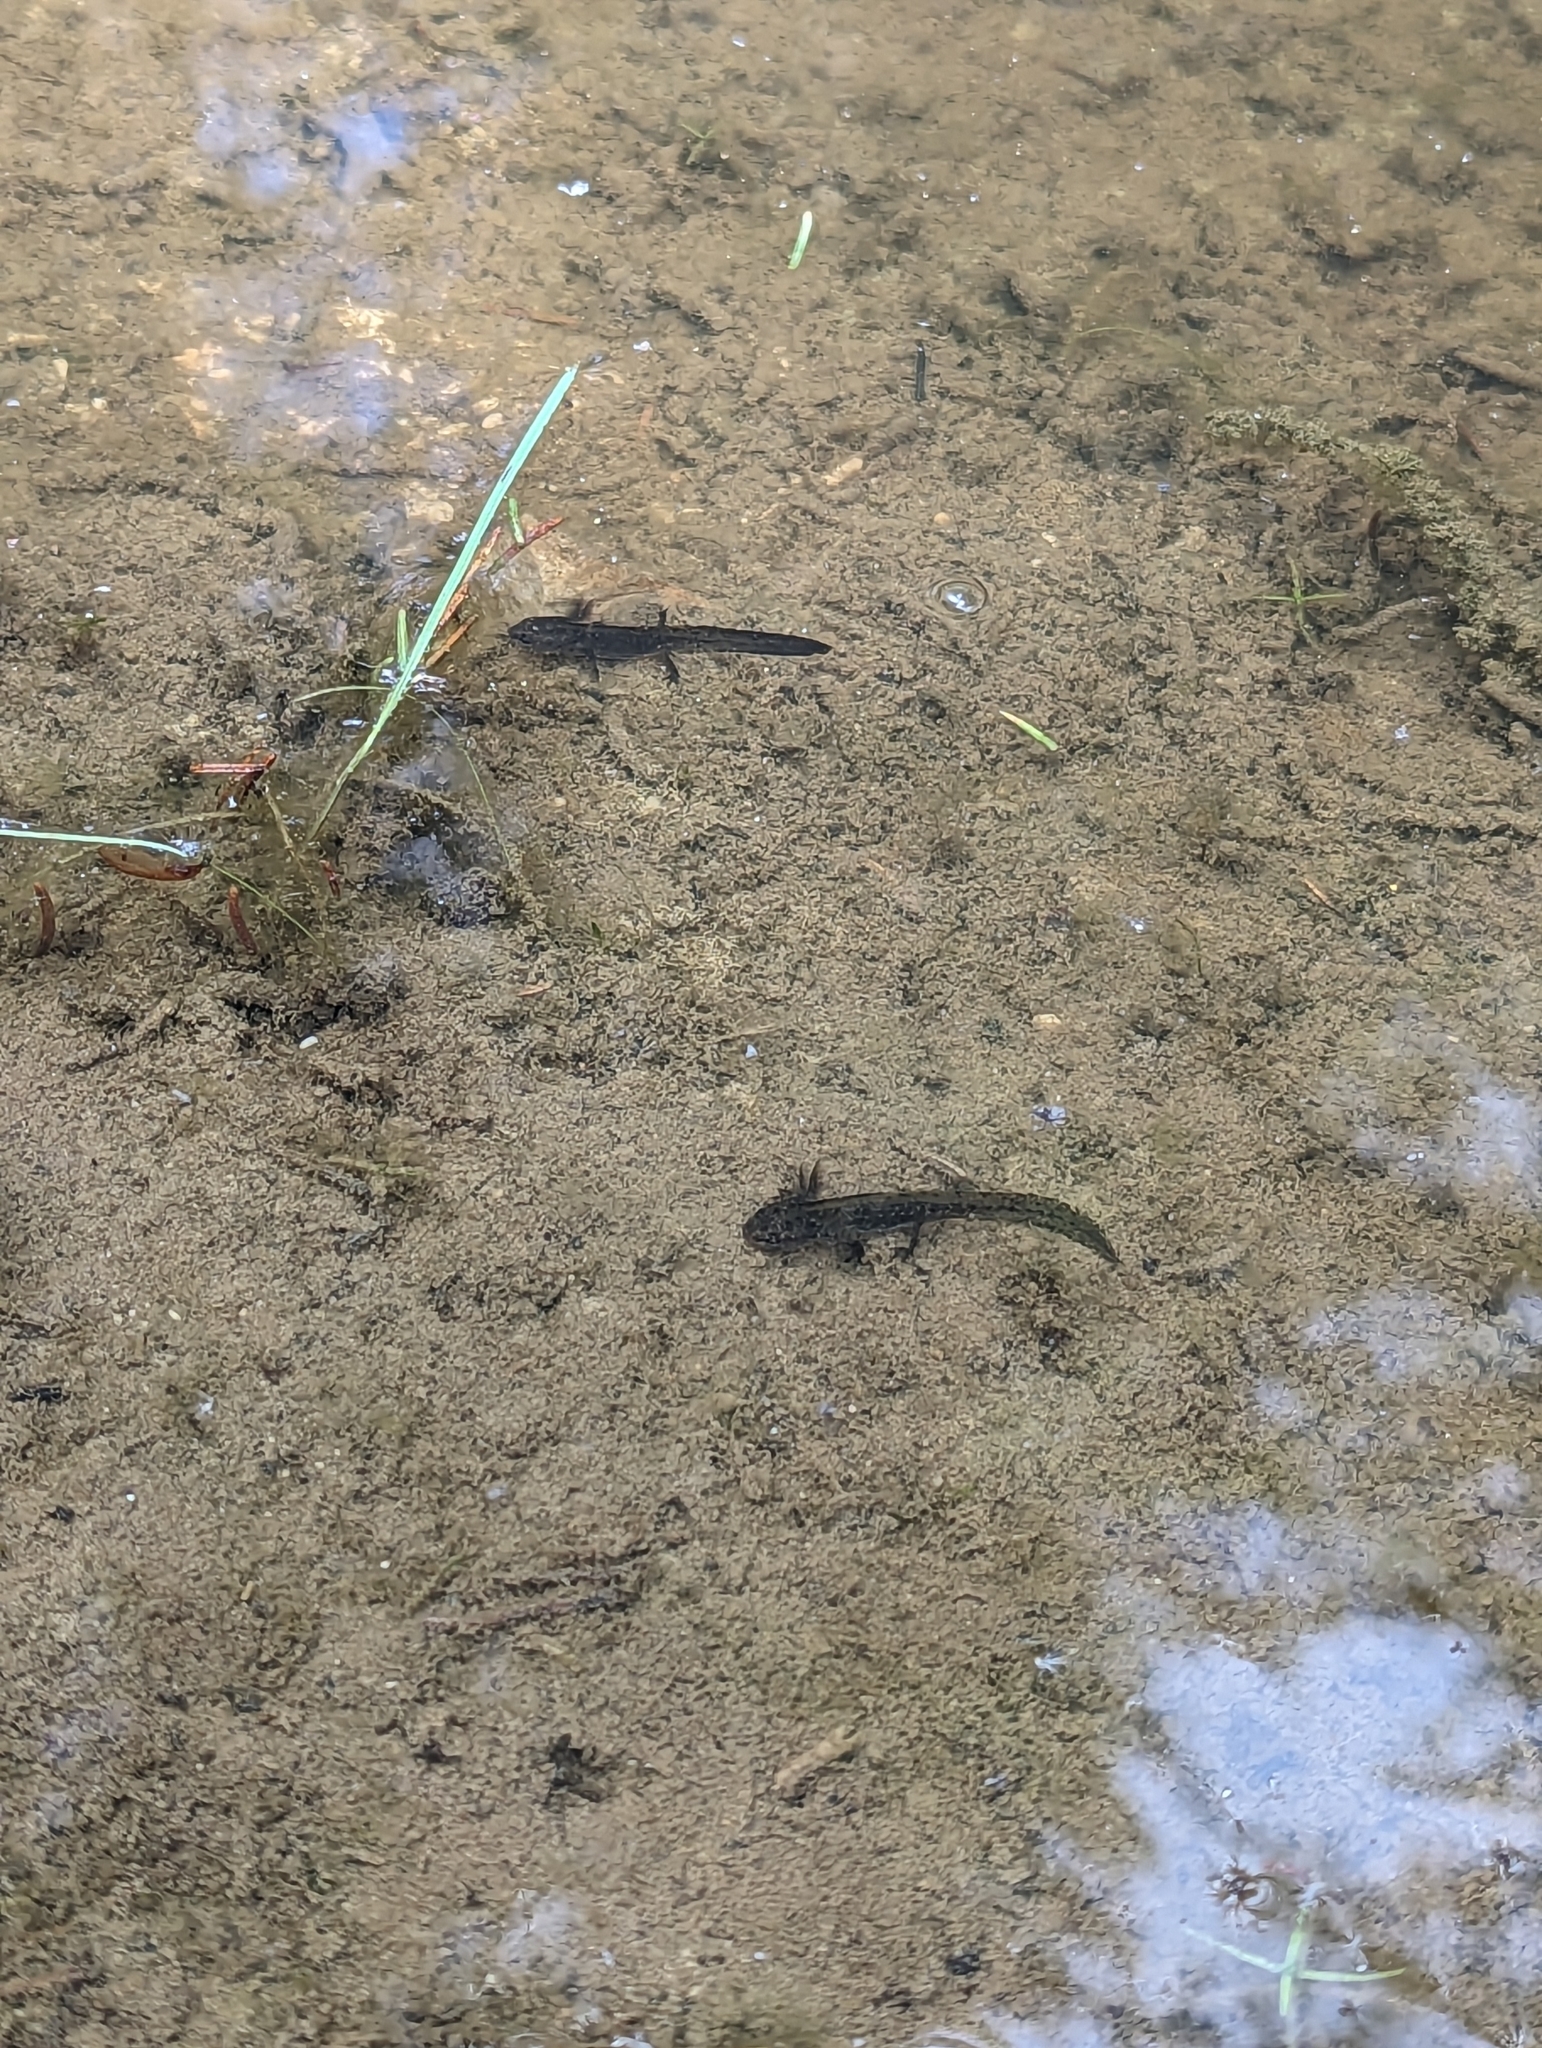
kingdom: Animalia
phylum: Chordata
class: Amphibia
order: Caudata
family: Salamandridae
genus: Ichthyosaura
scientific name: Ichthyosaura alpestris
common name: Alpine newt
